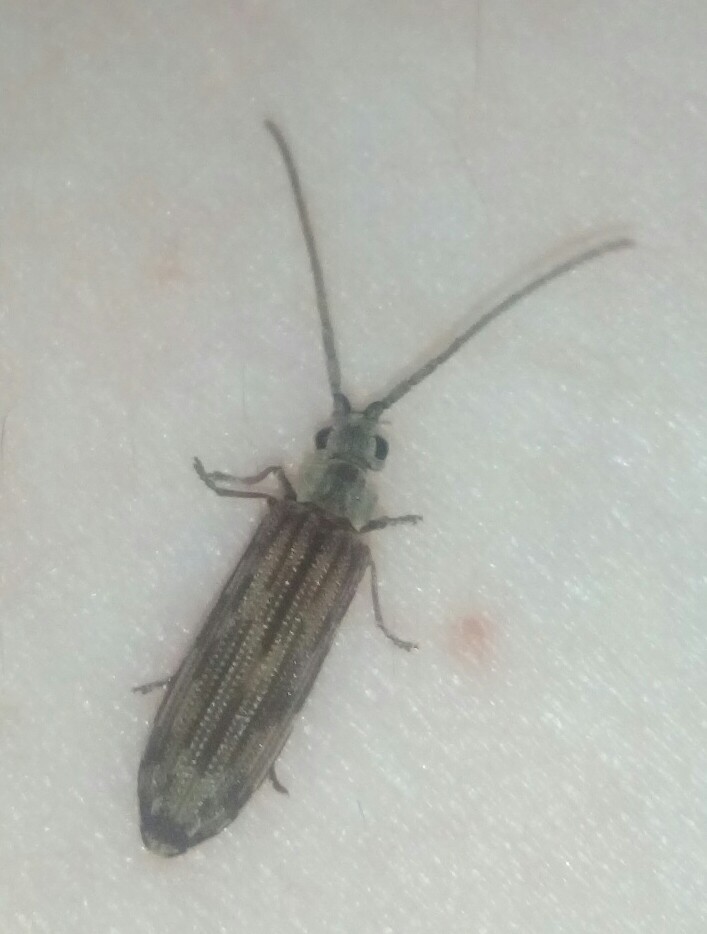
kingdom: Animalia
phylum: Arthropoda
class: Insecta
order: Coleoptera
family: Cupedidae
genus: Tenomerga
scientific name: Tenomerga cinerea
